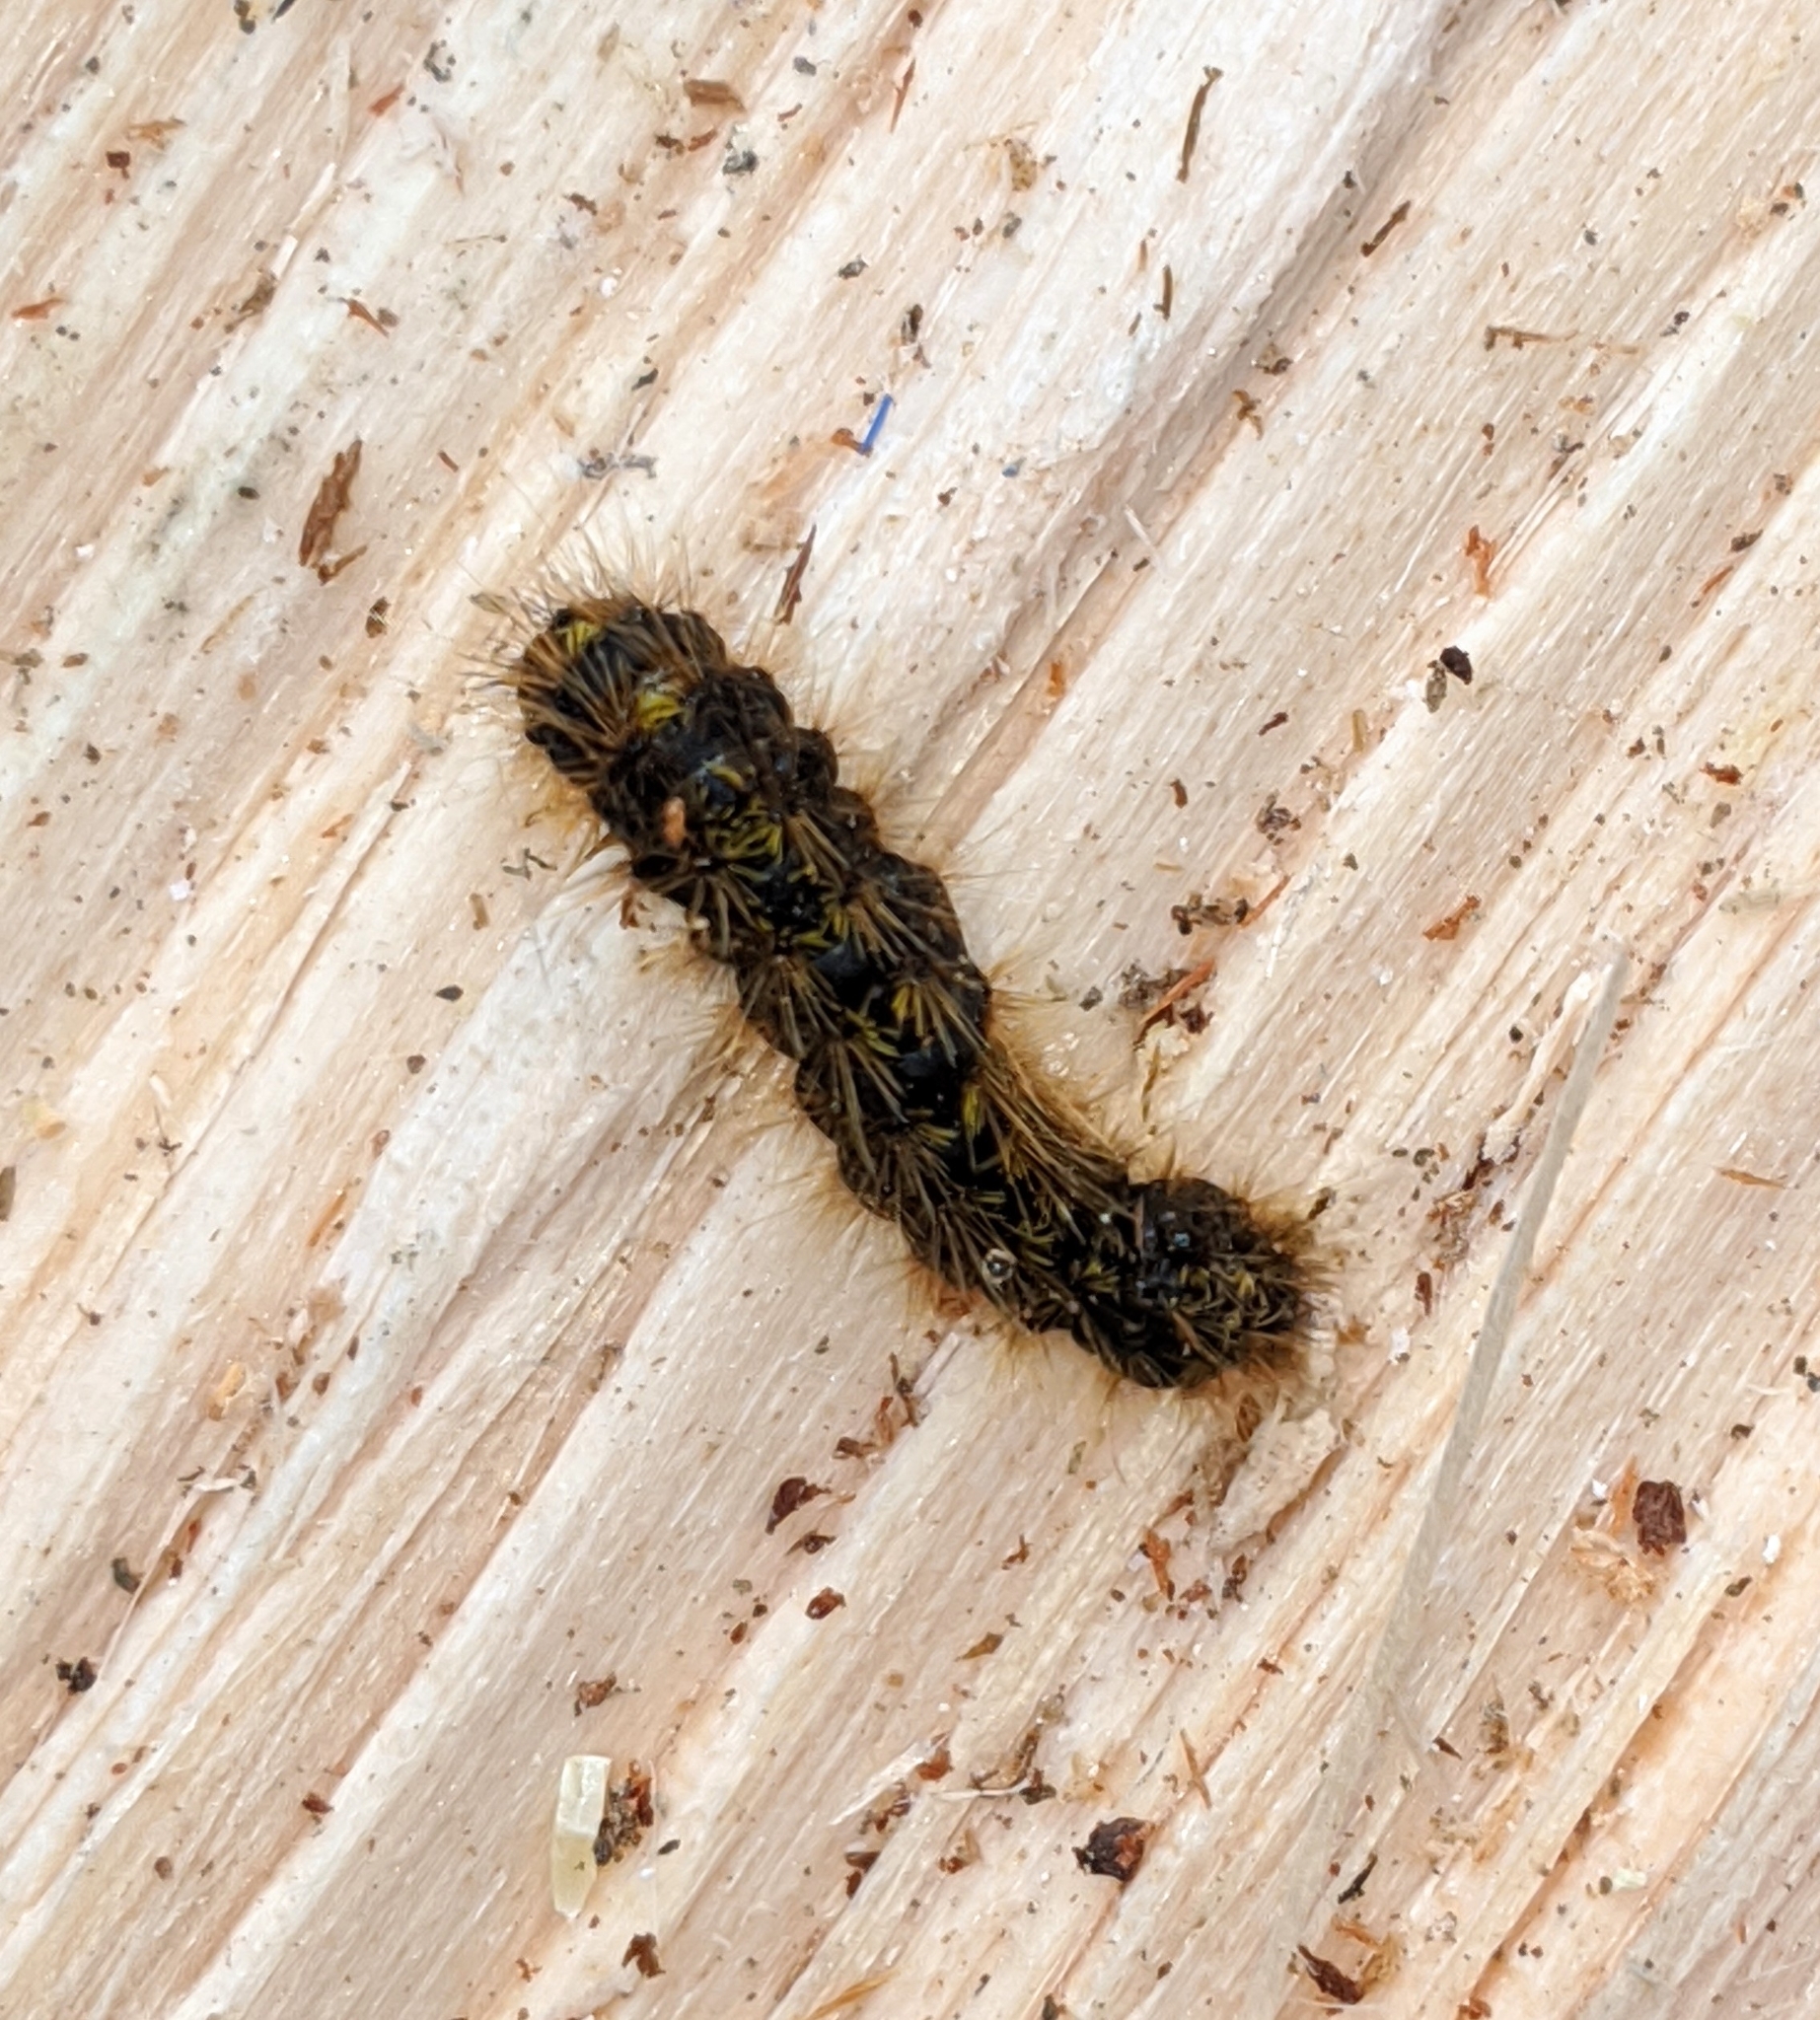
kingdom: Animalia
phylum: Arthropoda
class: Insecta
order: Lepidoptera
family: Erebidae
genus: Lophocampa
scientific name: Lophocampa argentata
